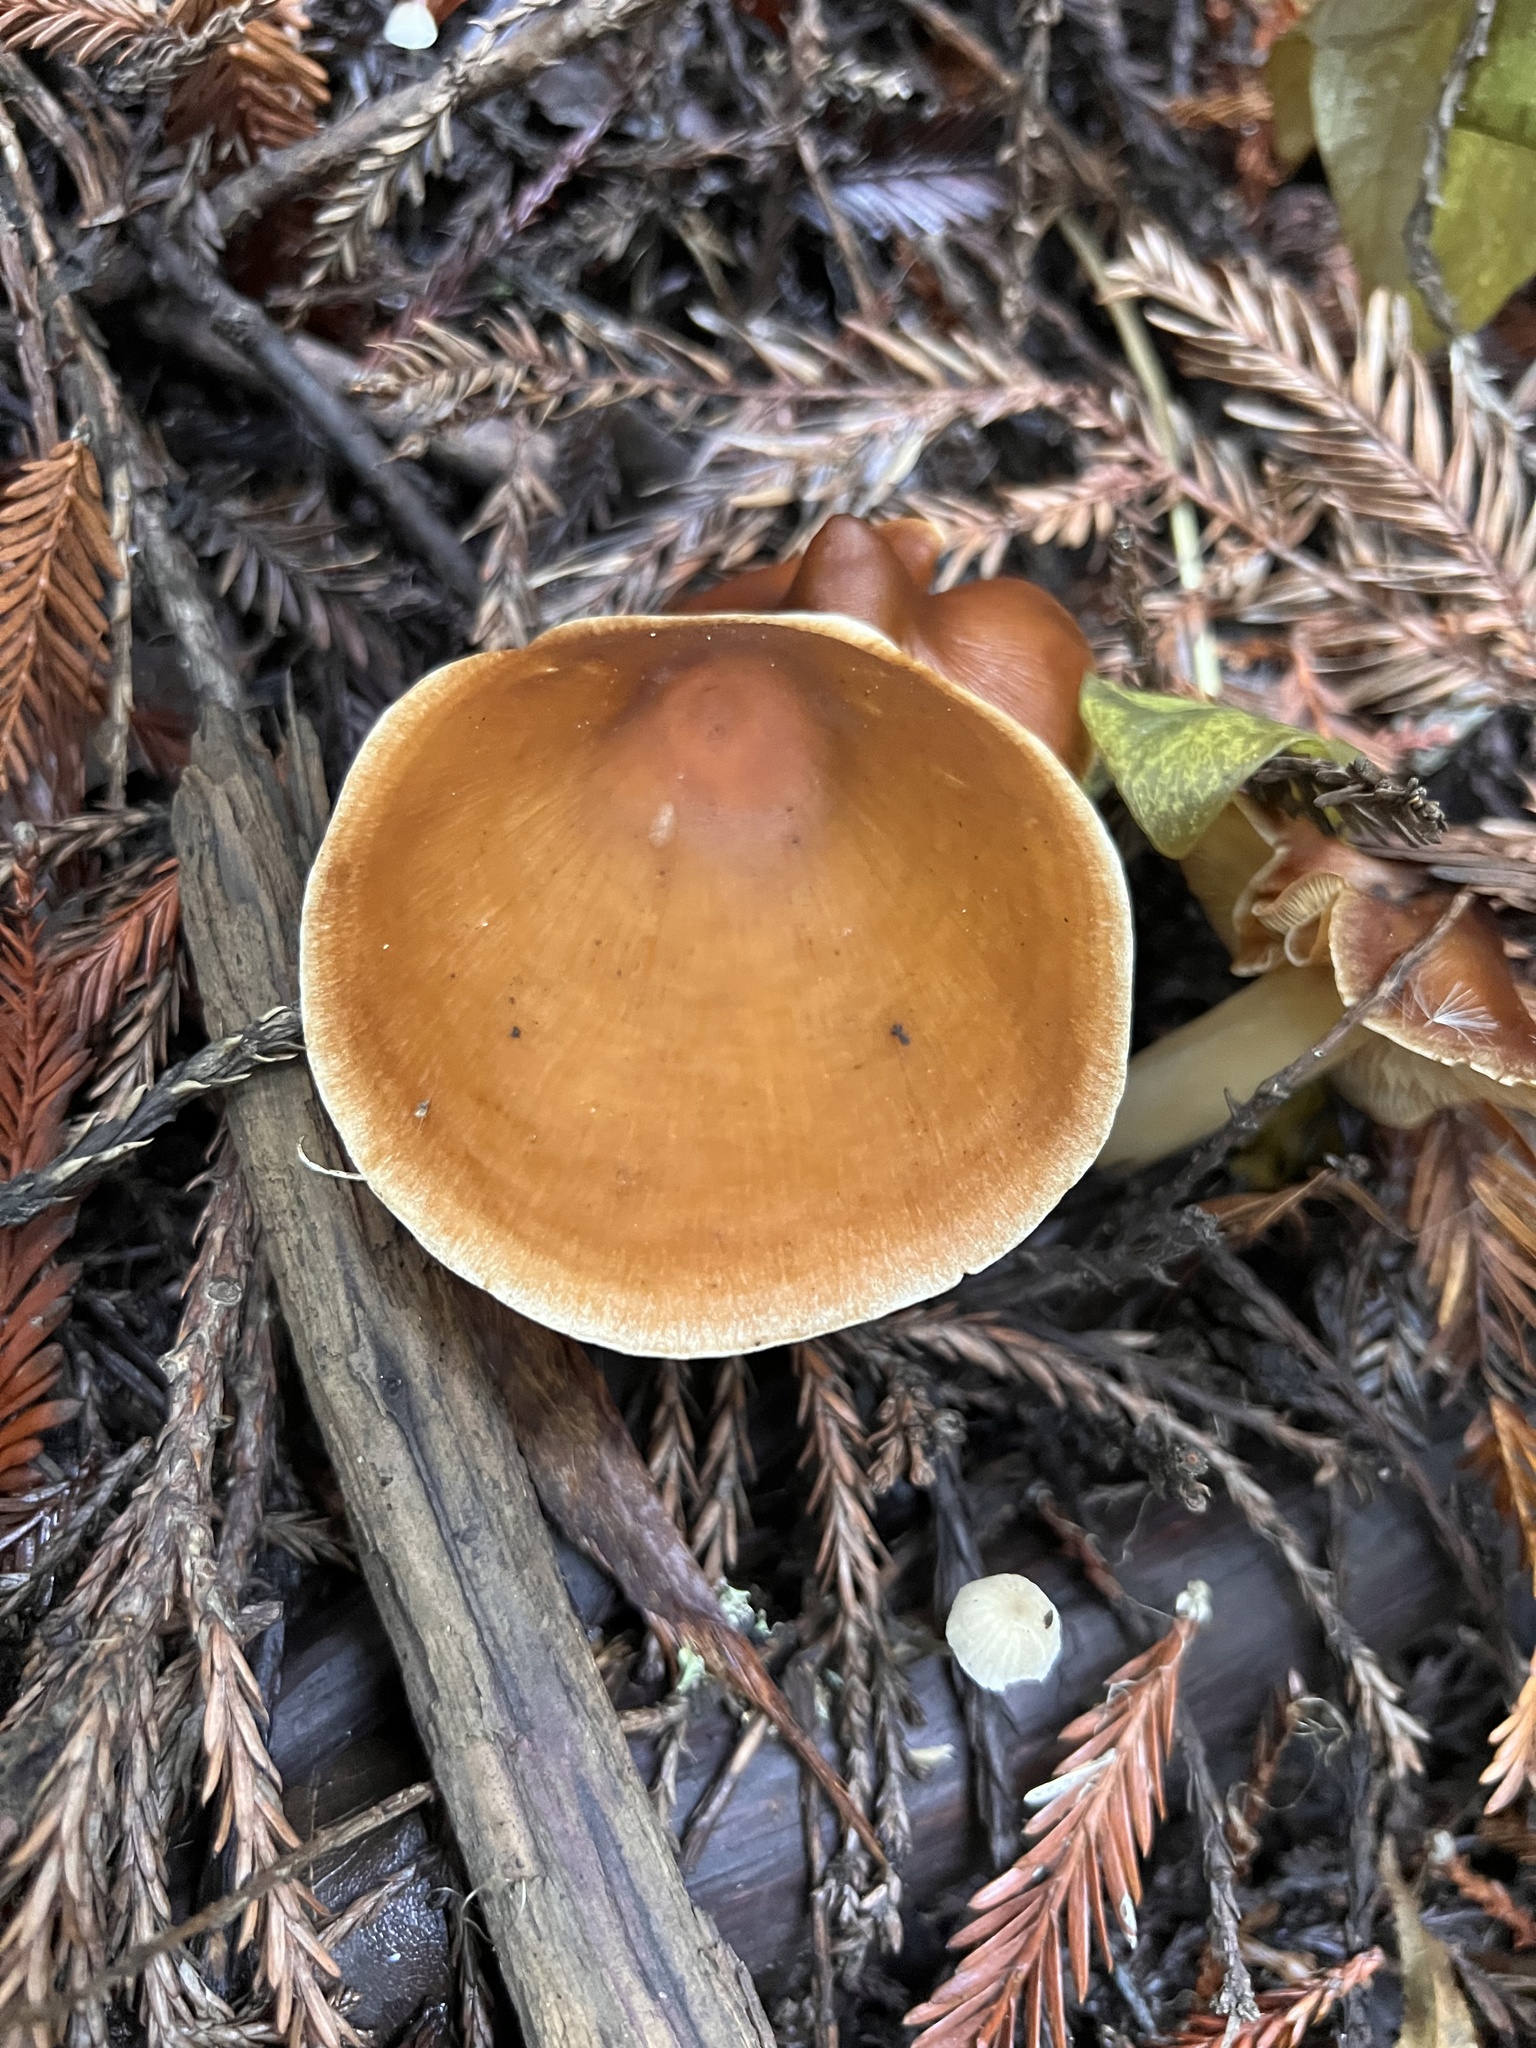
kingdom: Fungi
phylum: Basidiomycota
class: Agaricomycetes
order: Agaricales
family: Tricholomataceae
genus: Caulorhiza
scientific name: Caulorhiza umbonata
